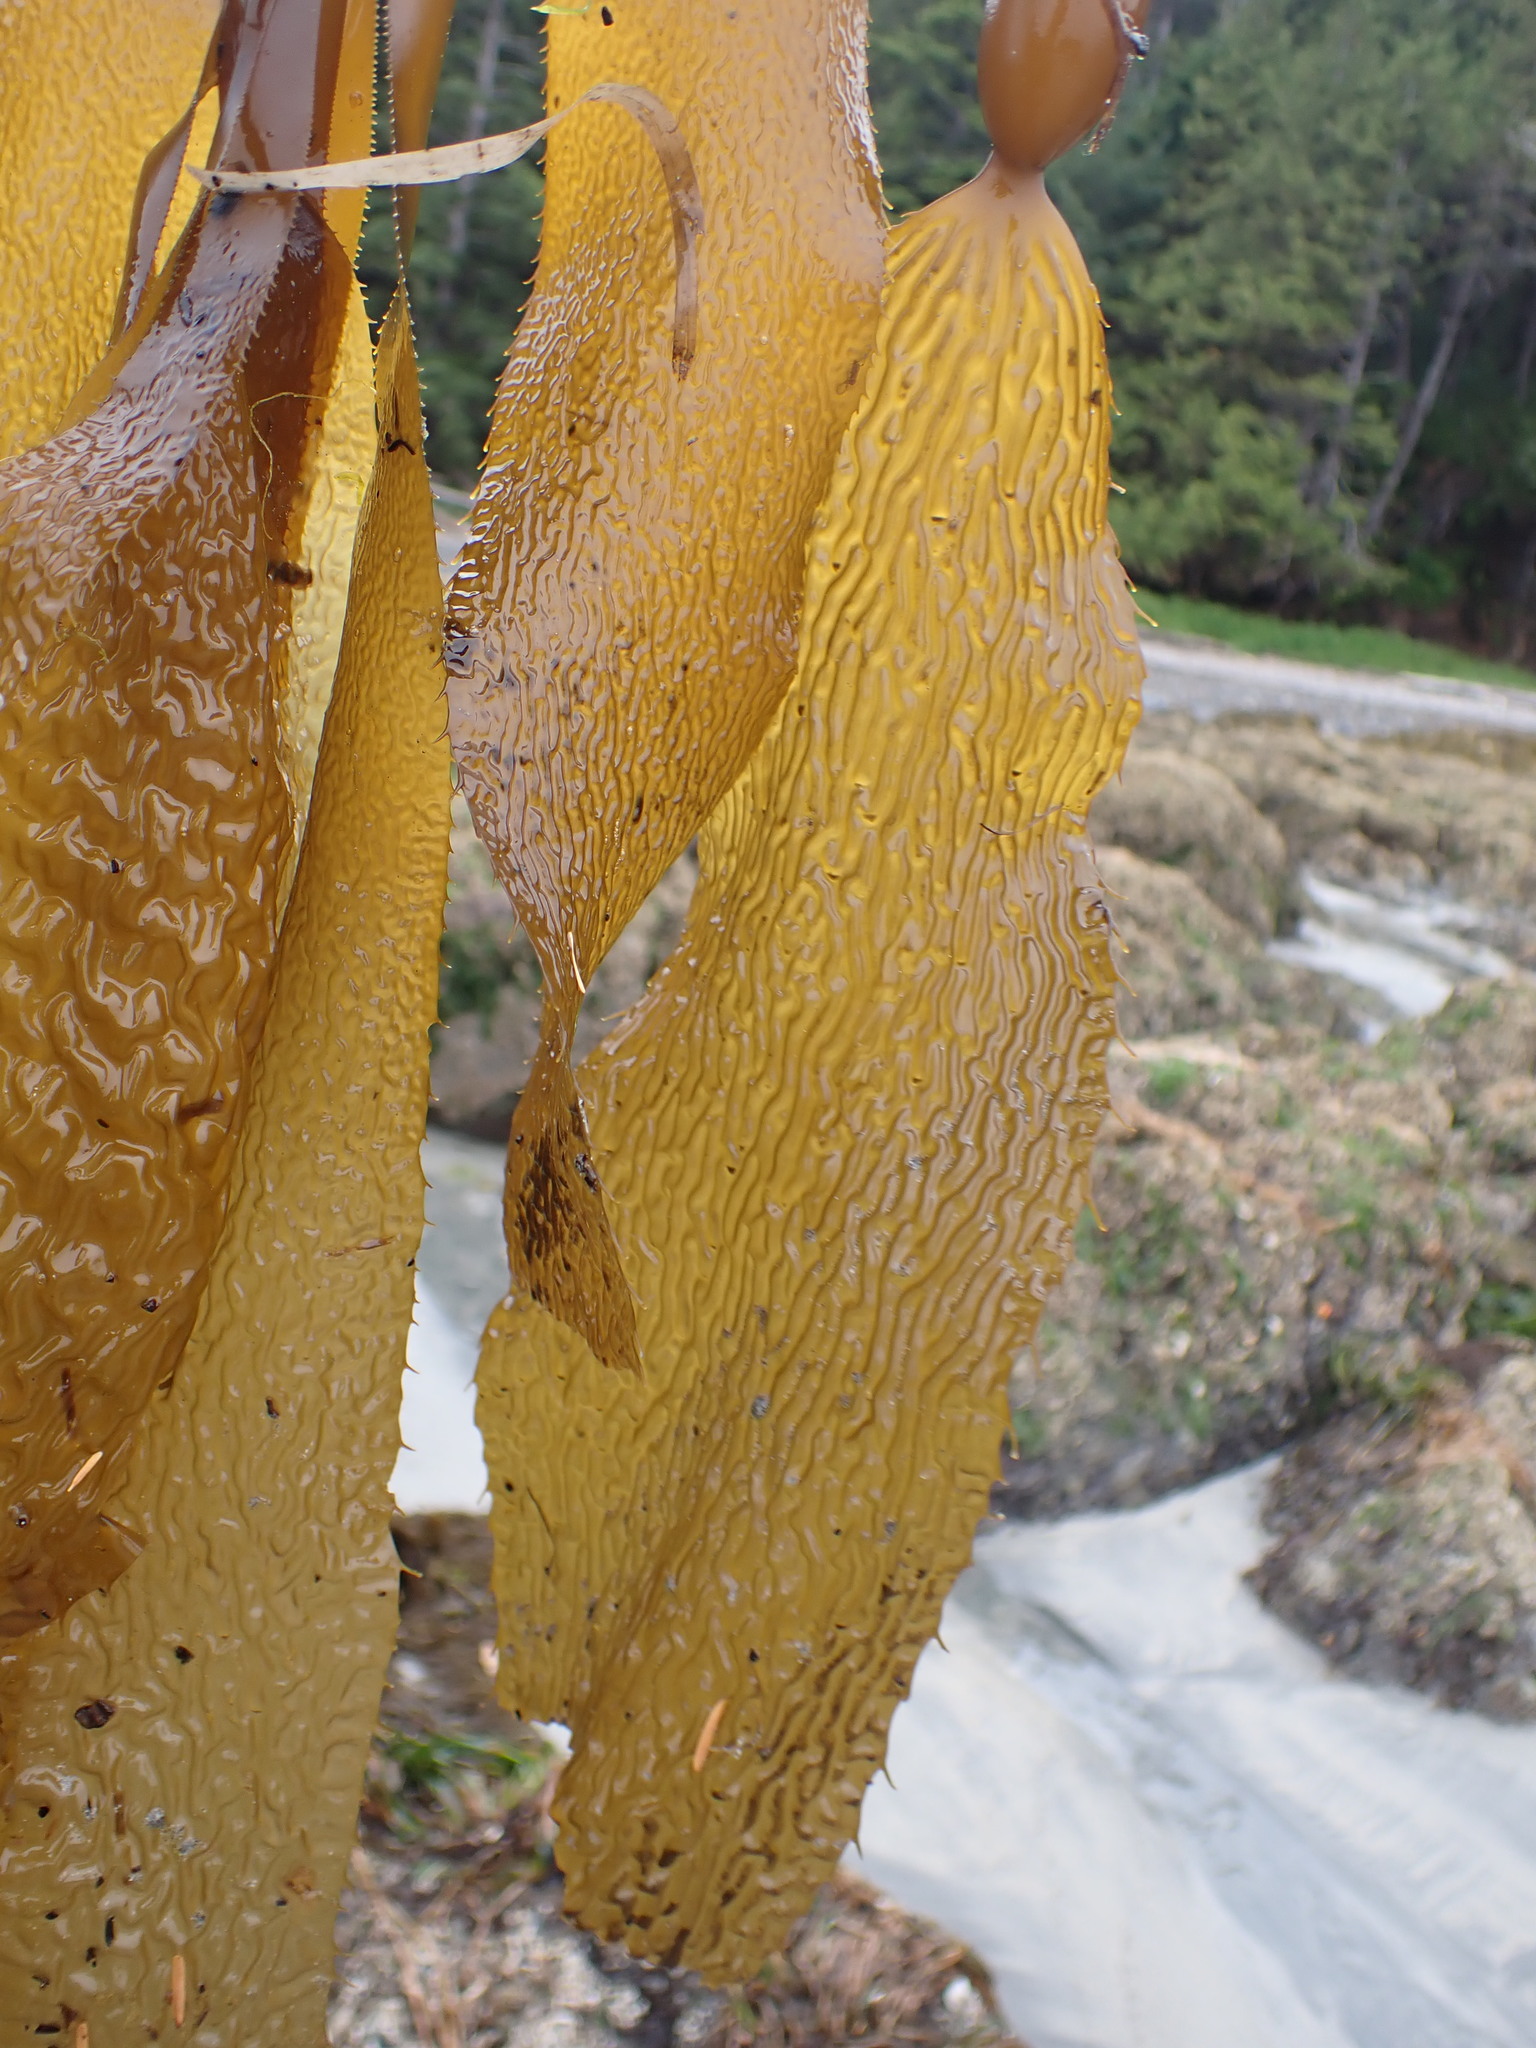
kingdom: Chromista
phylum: Ochrophyta
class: Phaeophyceae
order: Laminariales
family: Laminariaceae
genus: Macrocystis
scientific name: Macrocystis pyrifera
